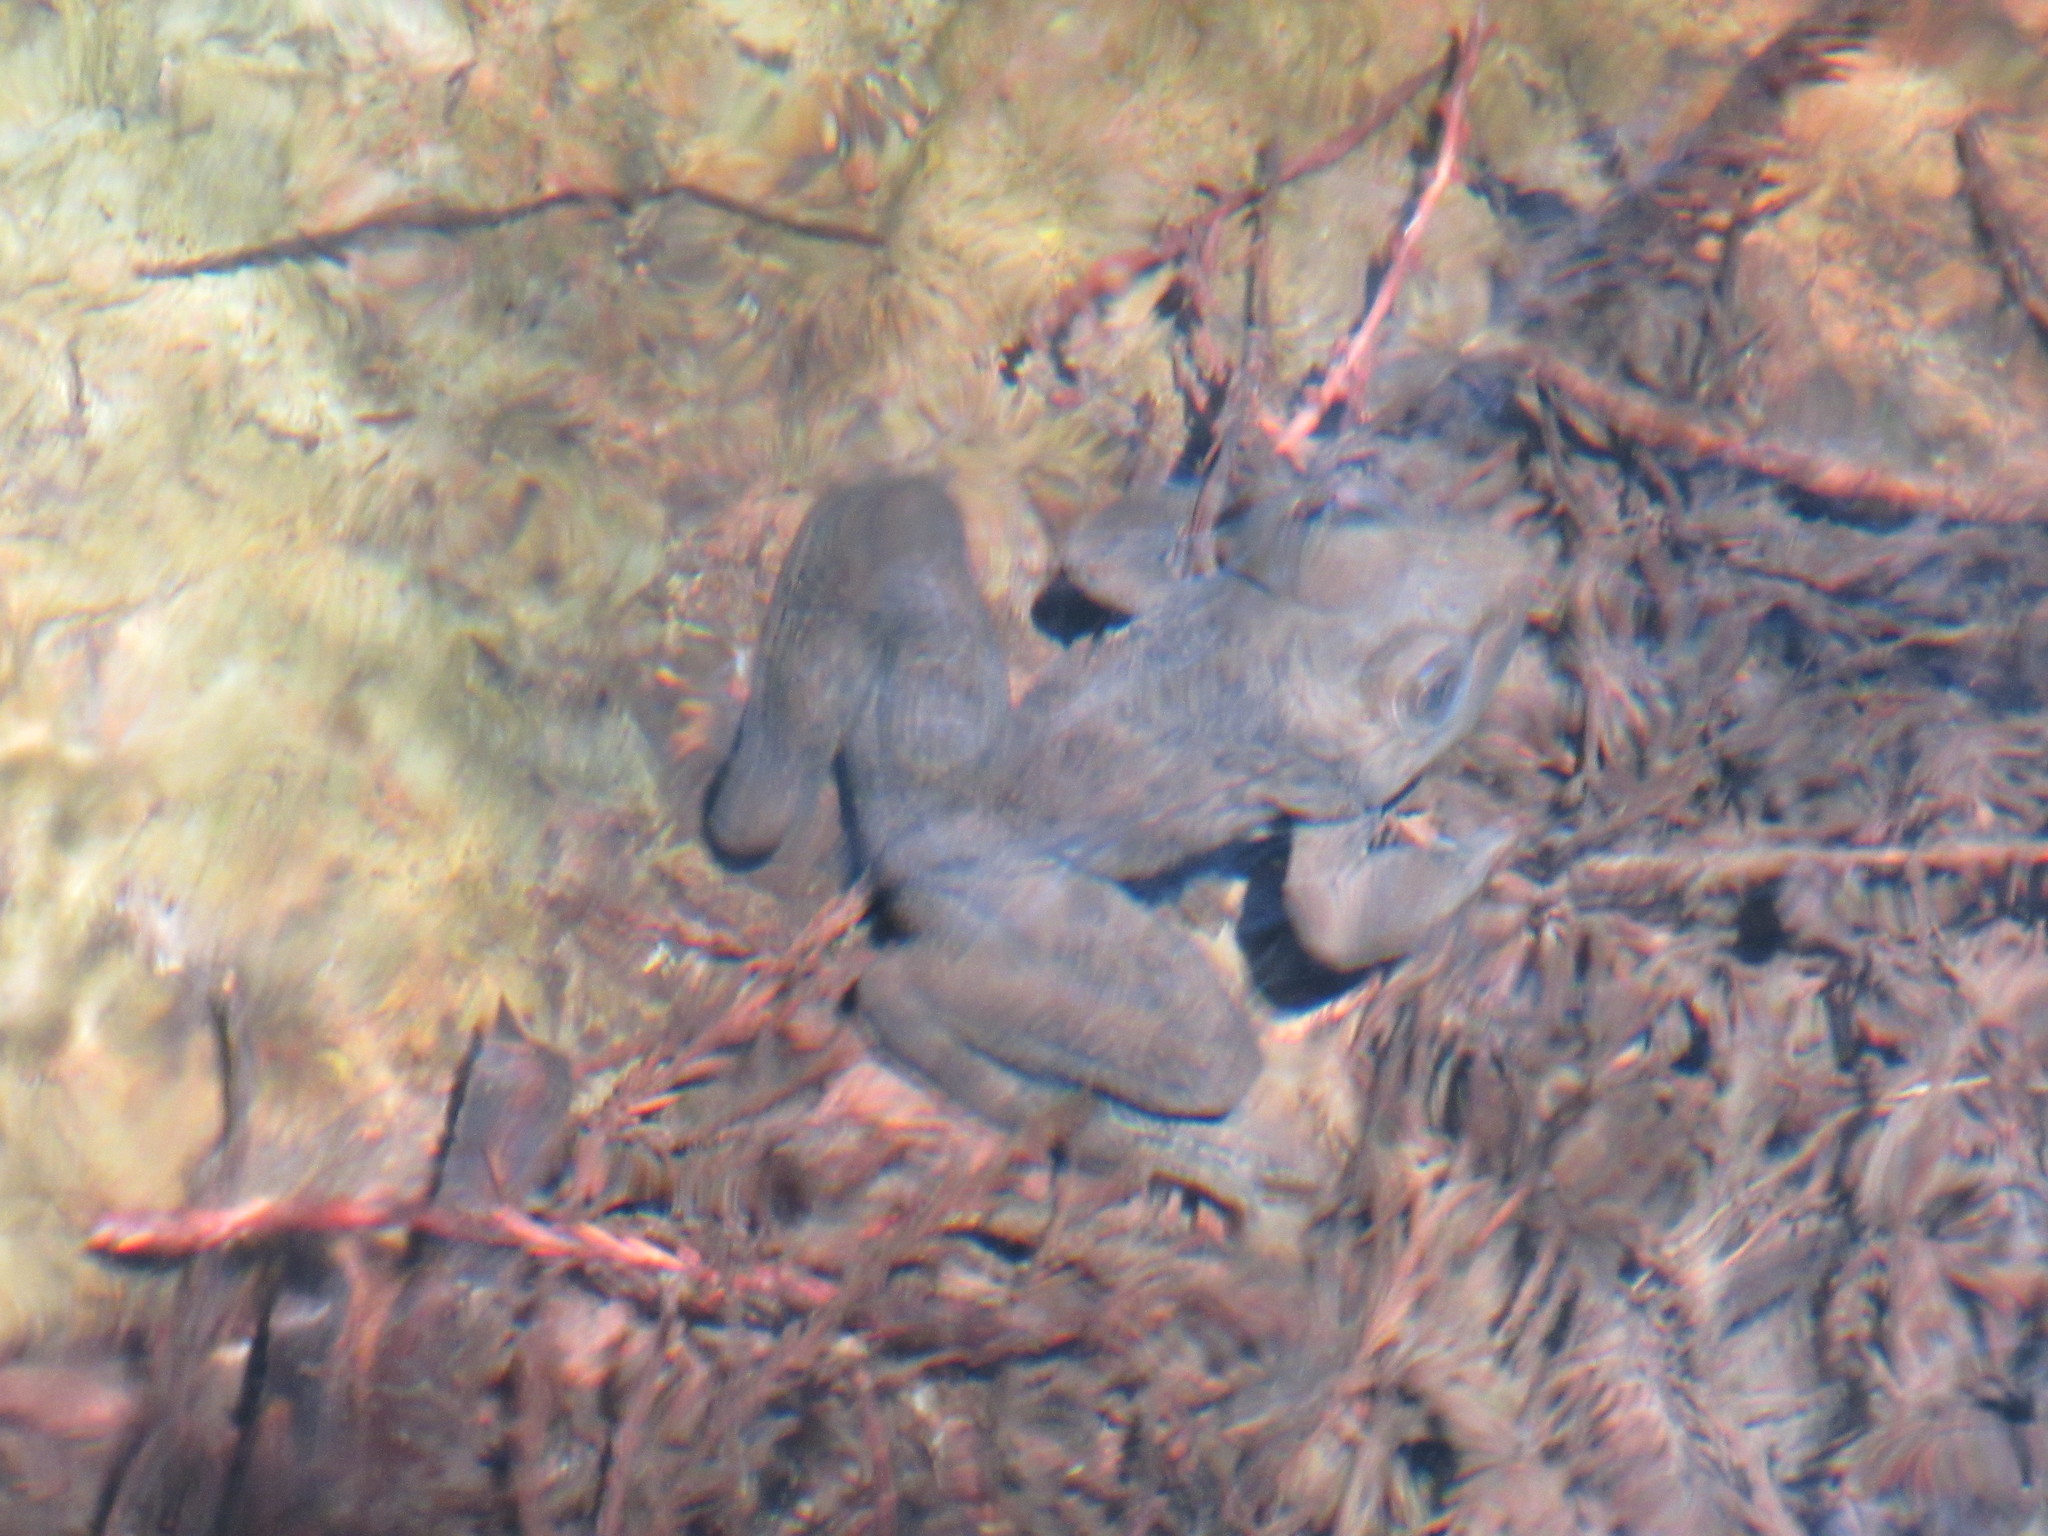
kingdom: Animalia
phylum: Chordata
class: Amphibia
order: Anura
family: Ranidae
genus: Lithobates
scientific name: Lithobates zweifeli
